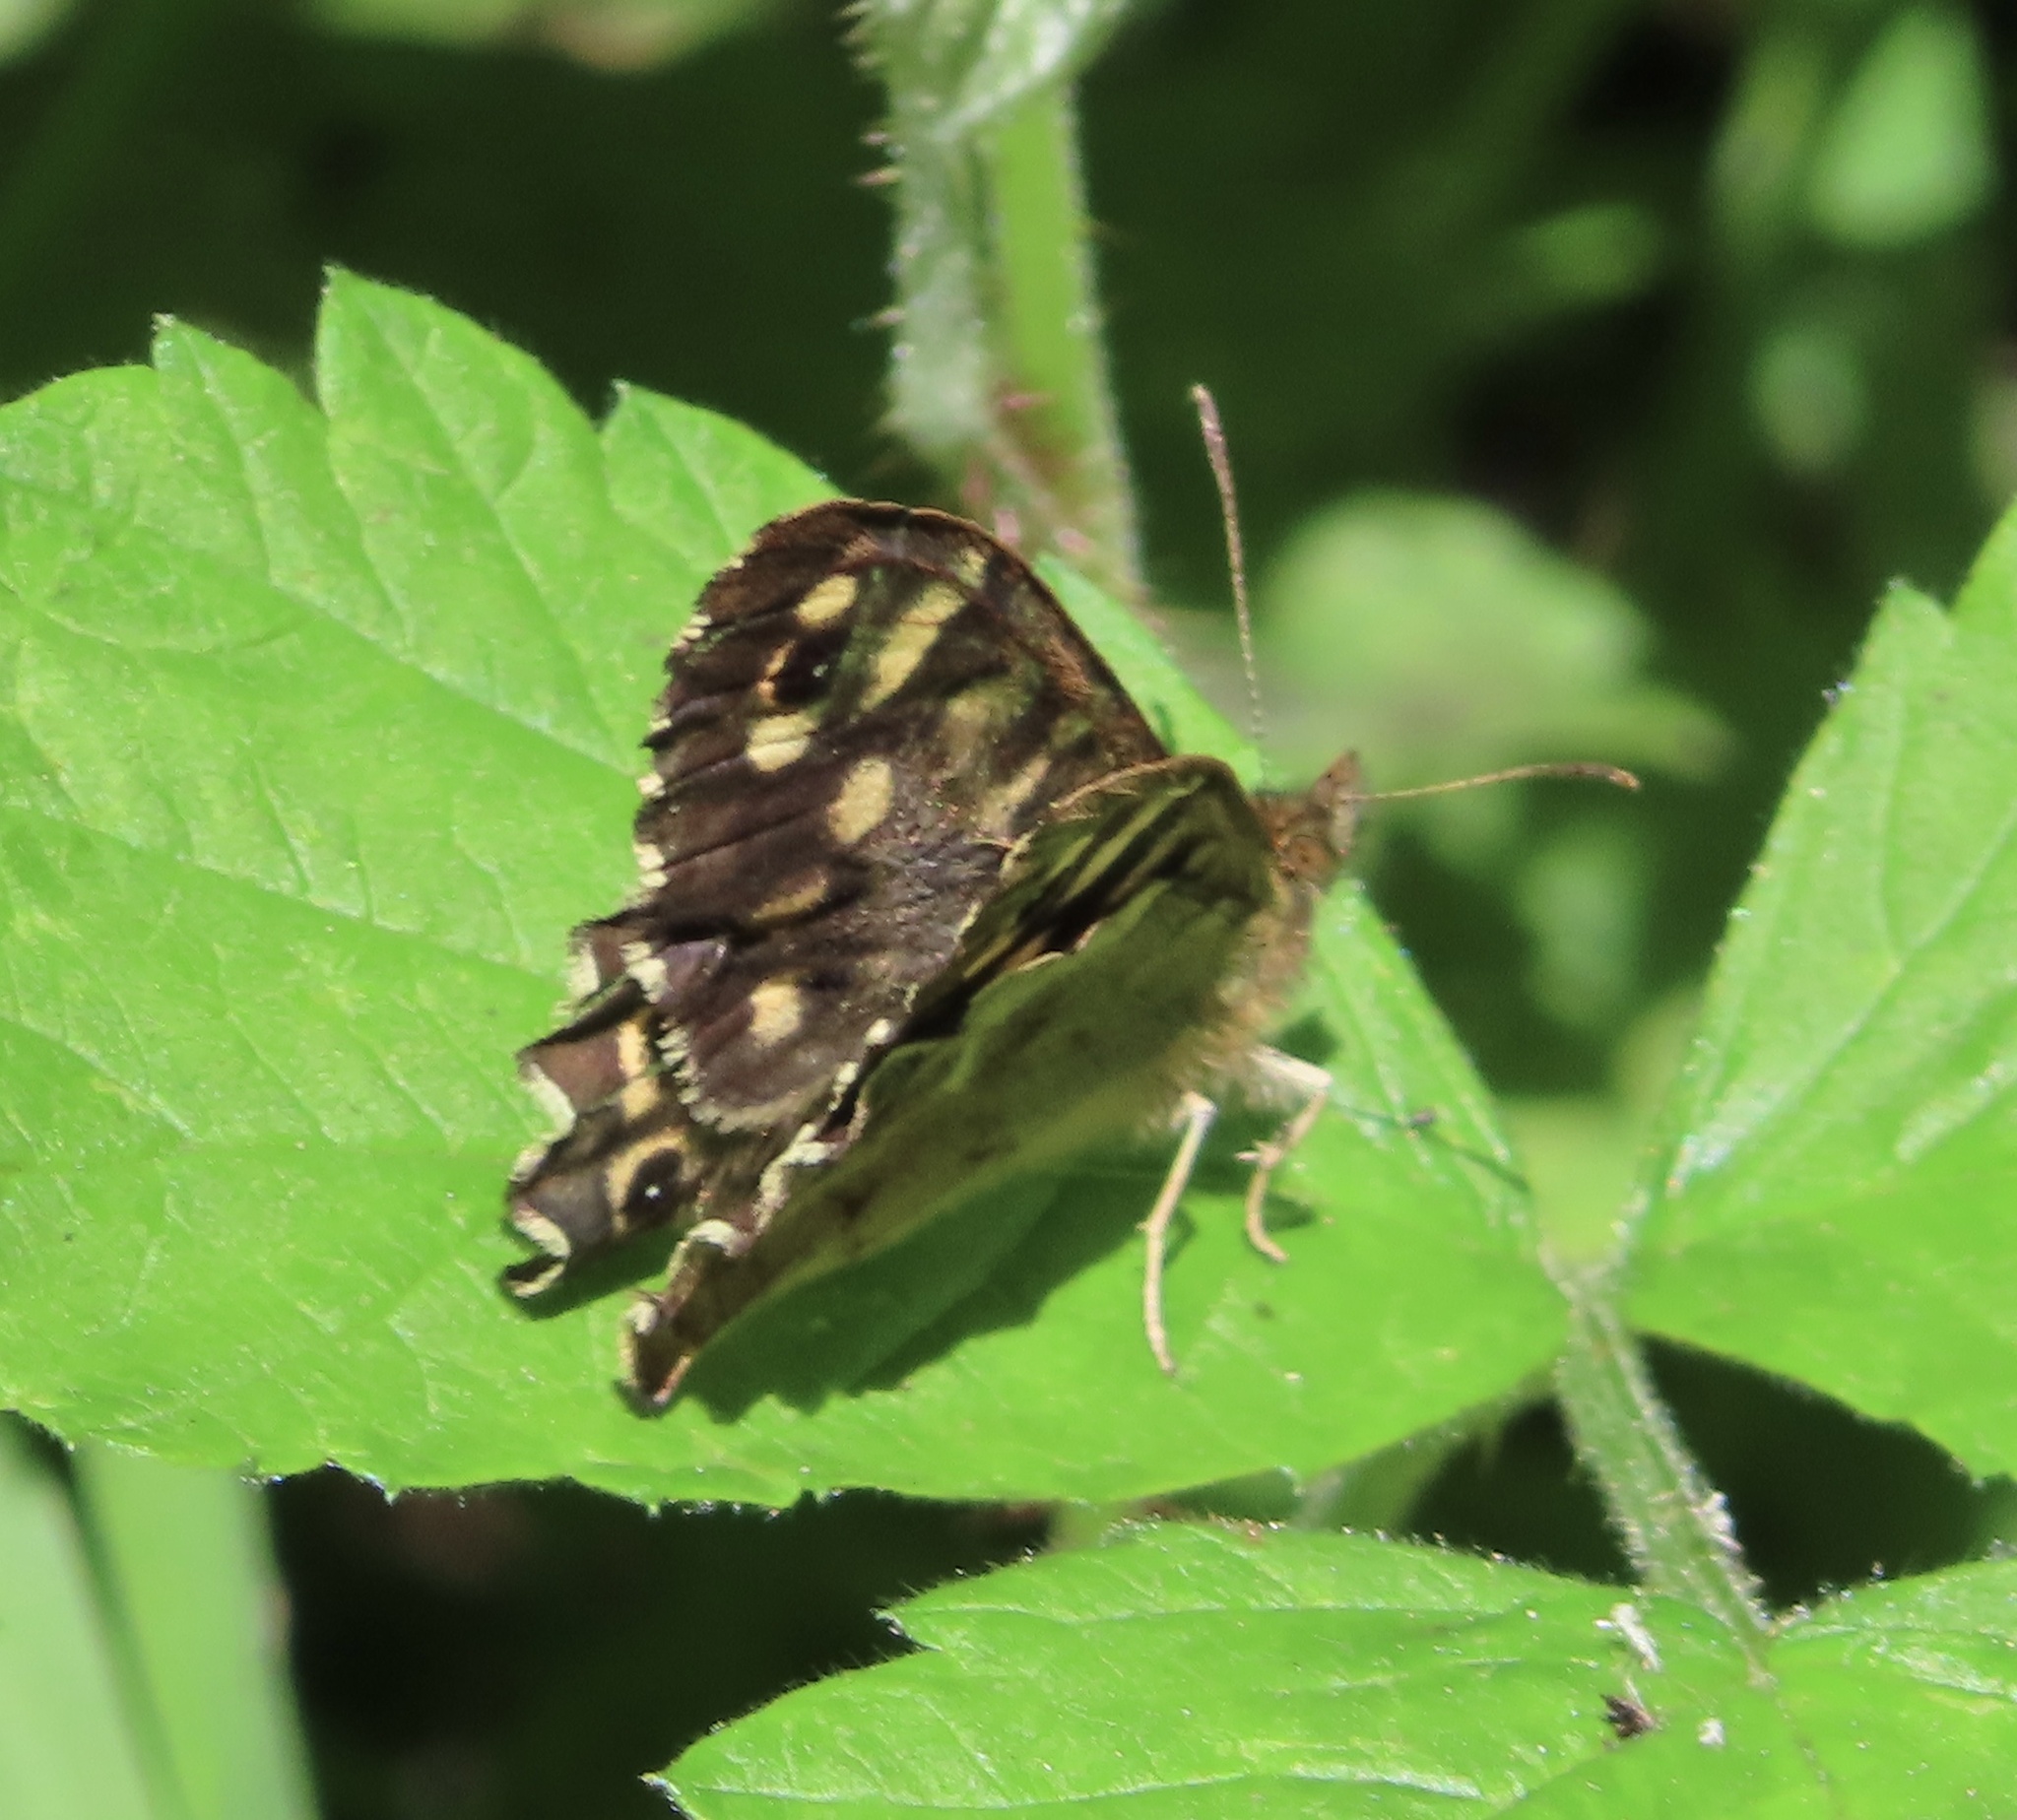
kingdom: Animalia
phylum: Arthropoda
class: Insecta
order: Lepidoptera
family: Nymphalidae
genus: Pararge
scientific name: Pararge aegeria
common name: Speckled wood
